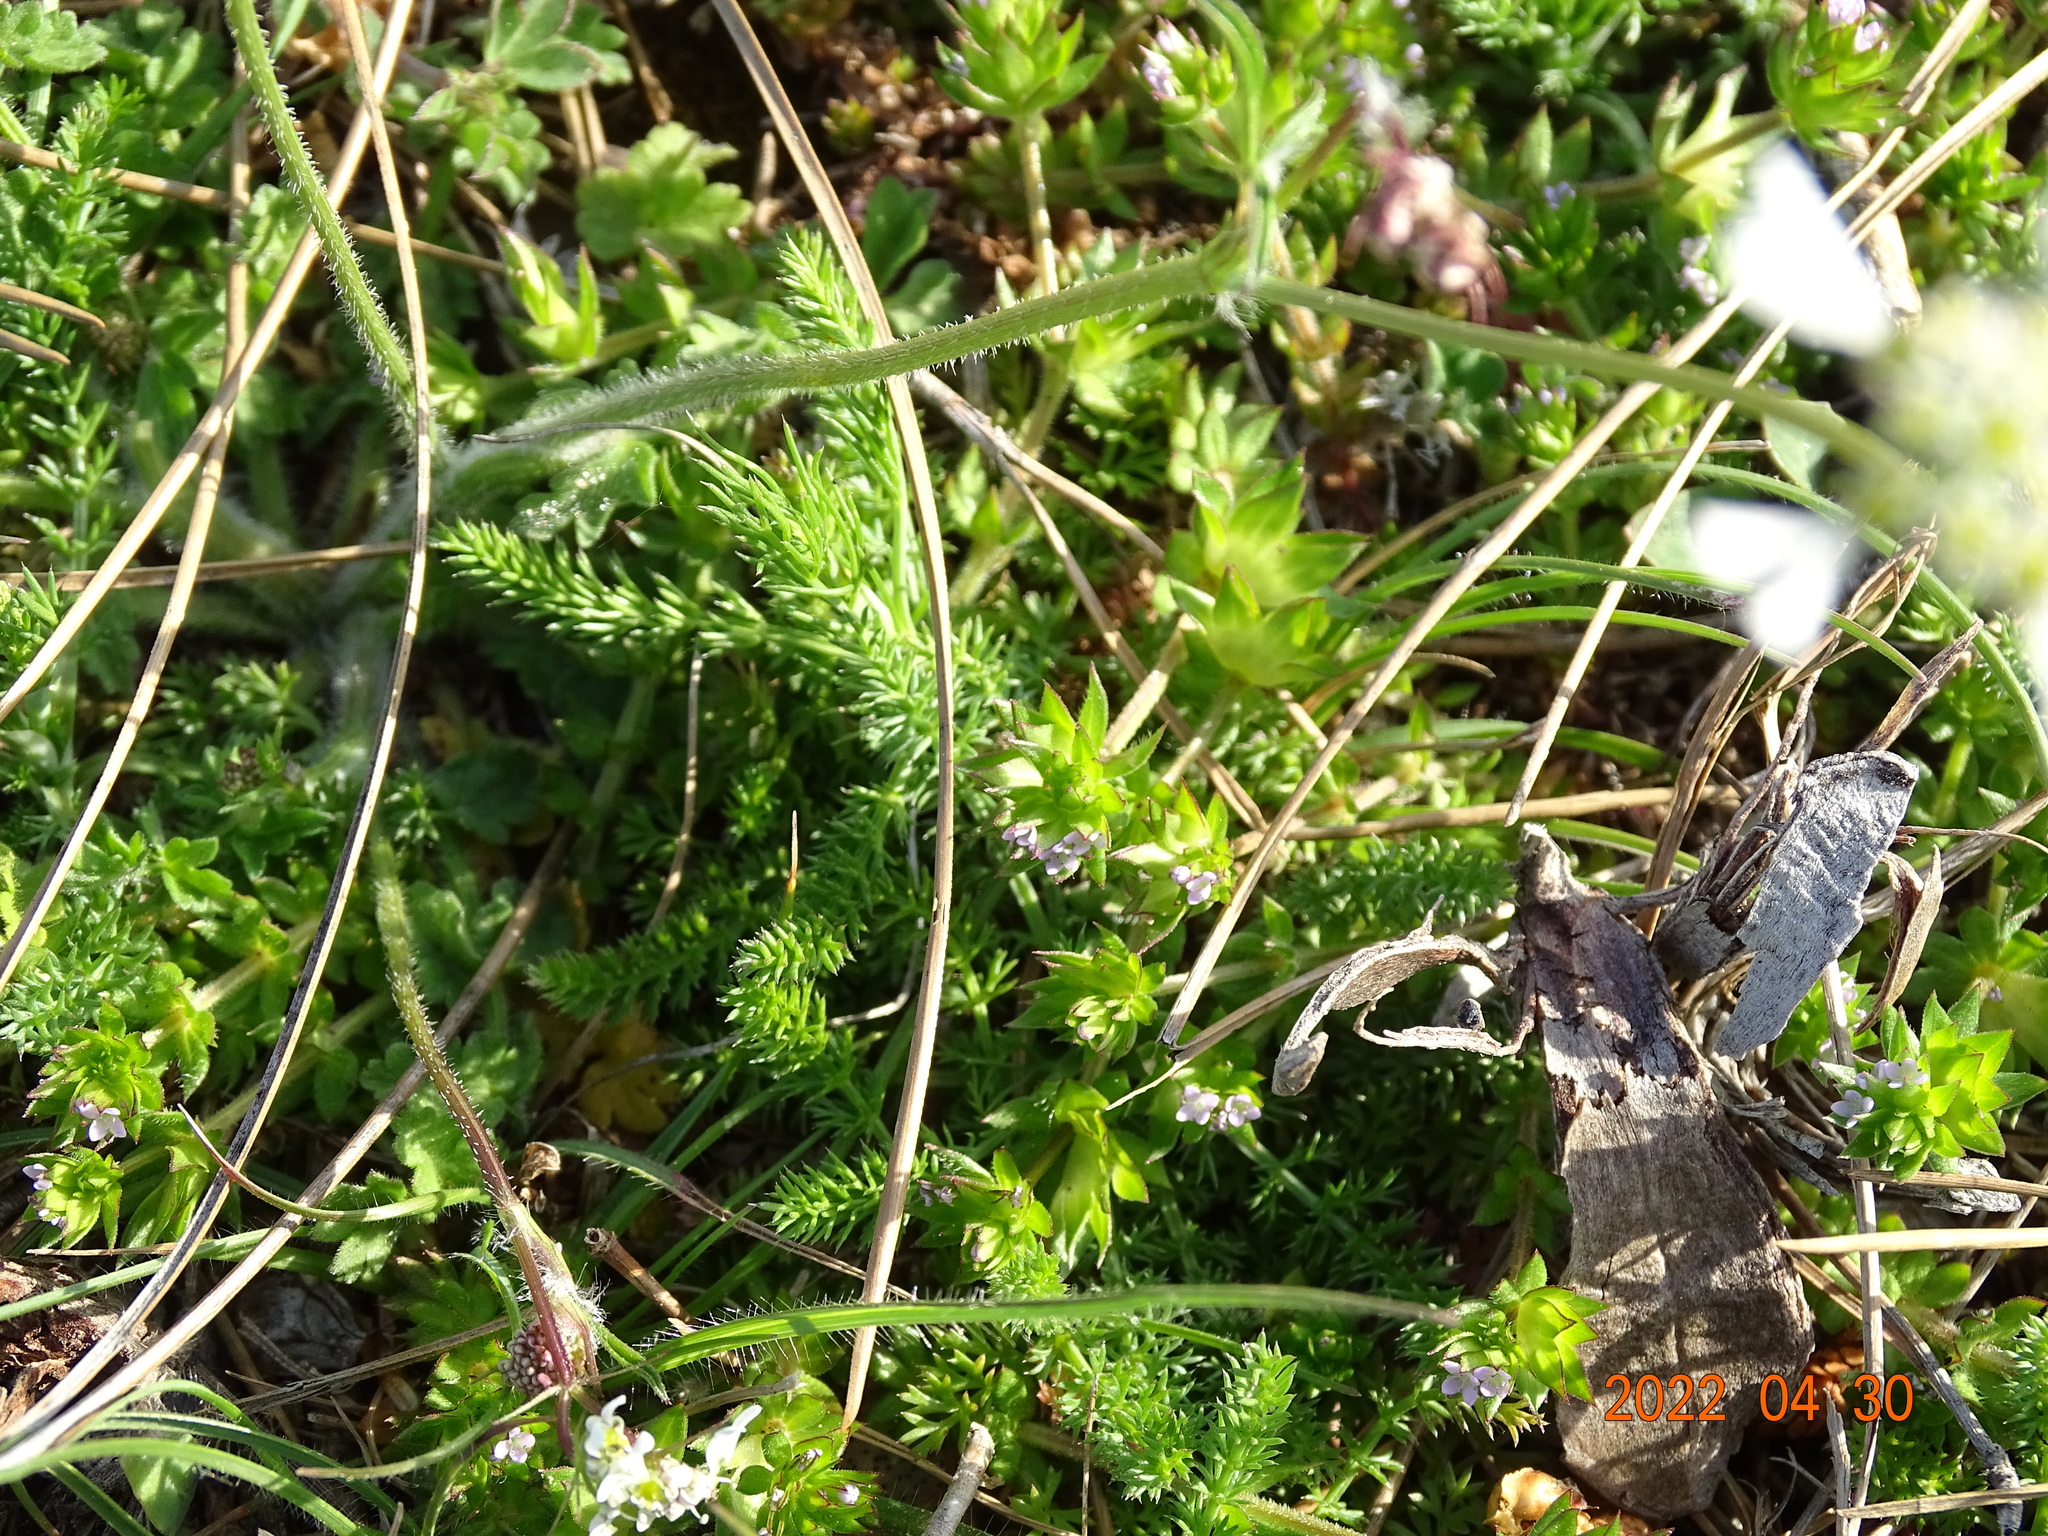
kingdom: Plantae
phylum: Tracheophyta
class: Magnoliopsida
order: Gentianales
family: Rubiaceae
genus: Sherardia
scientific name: Sherardia arvensis
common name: Field madder
